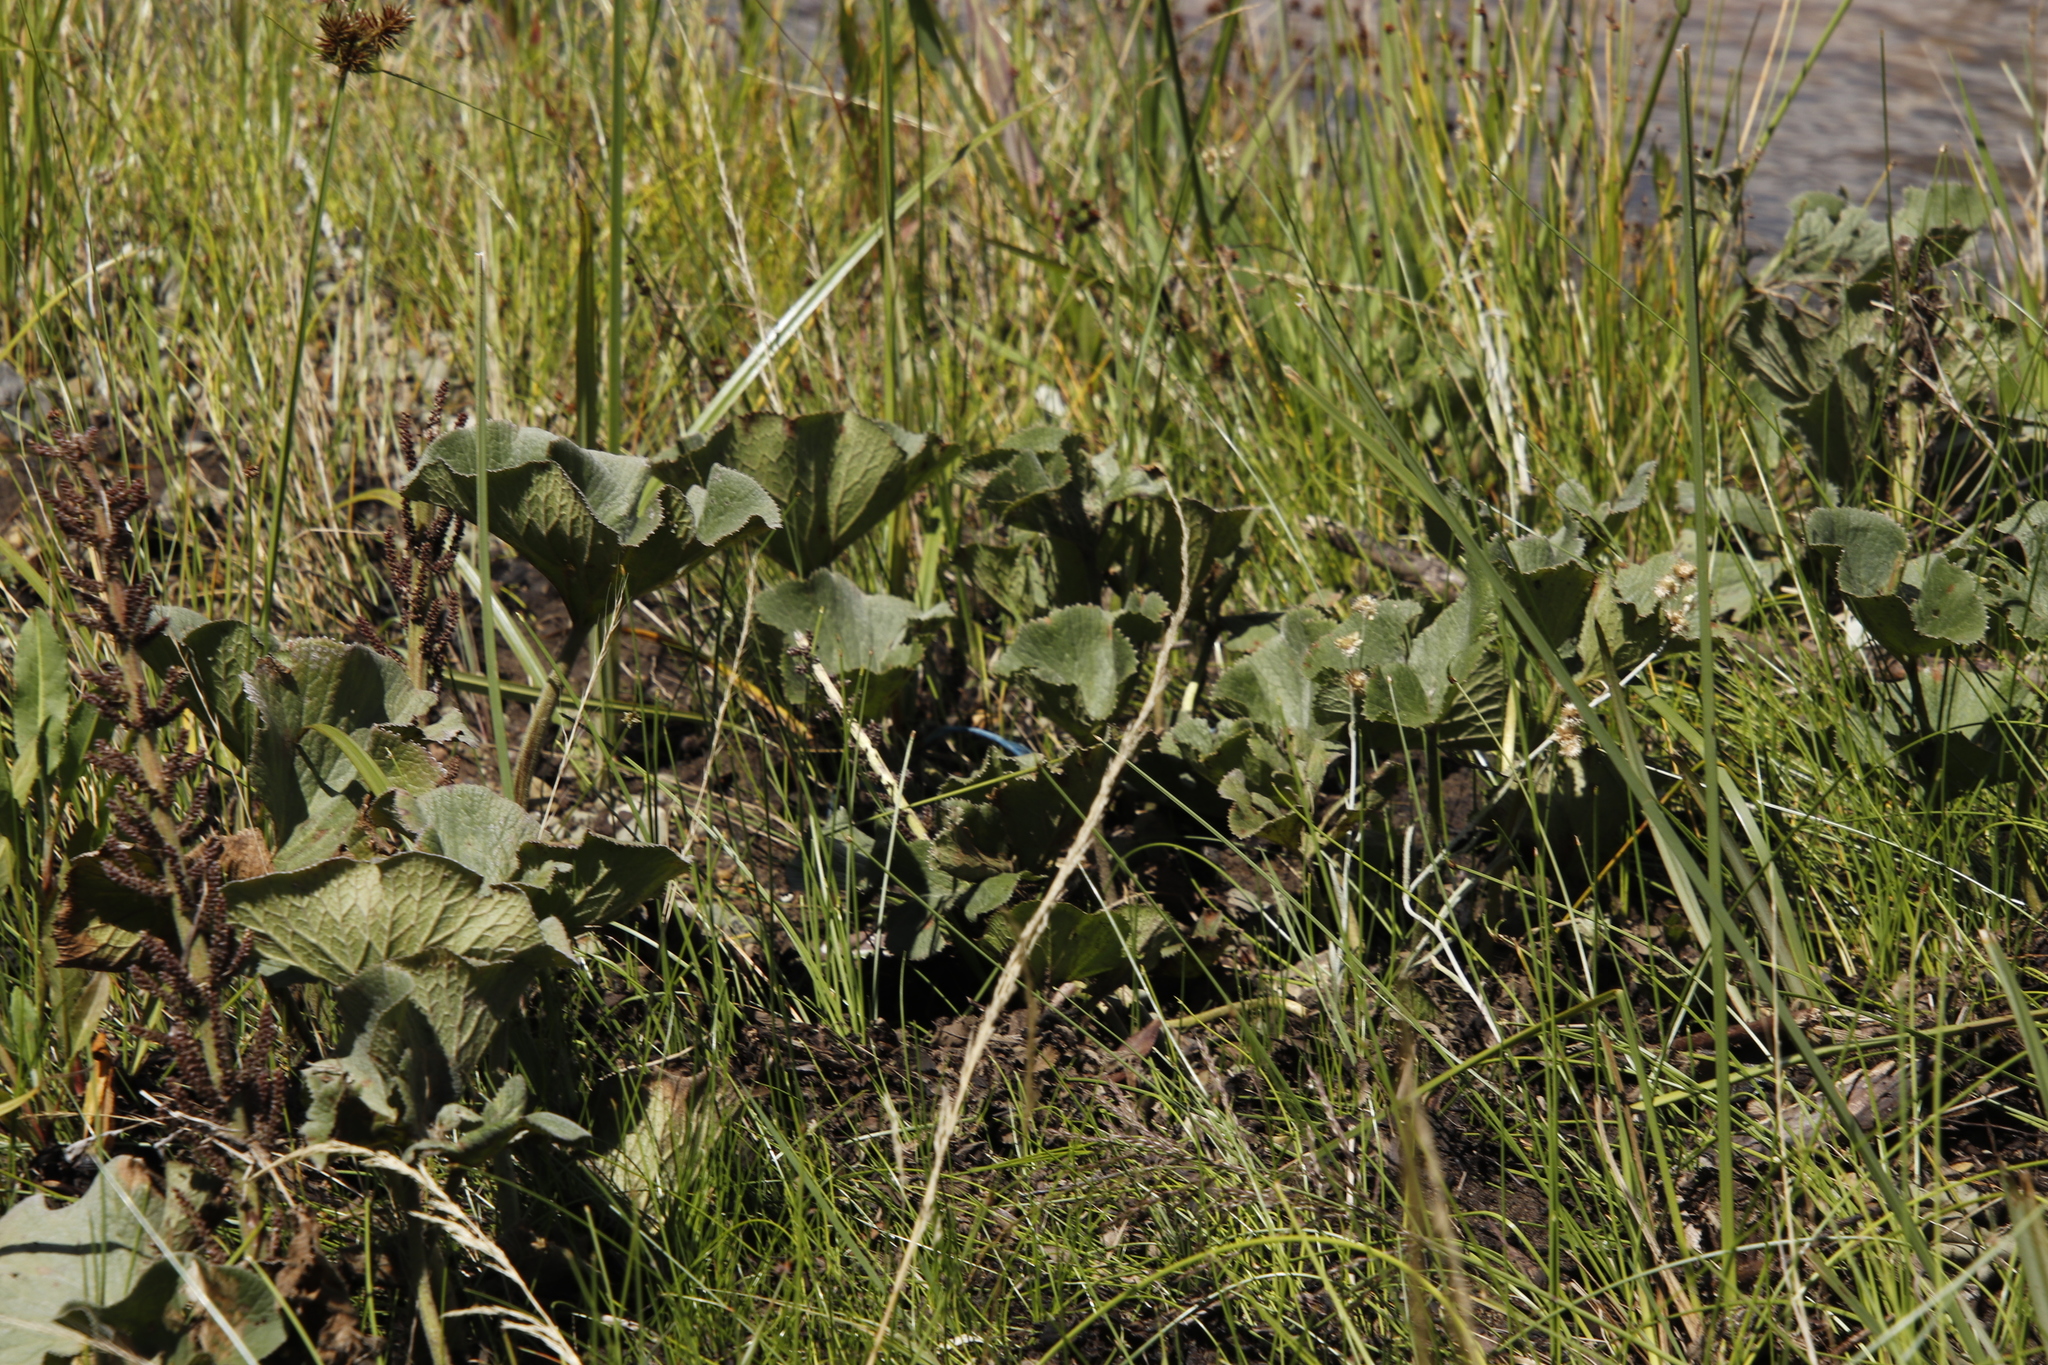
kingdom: Plantae
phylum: Tracheophyta
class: Magnoliopsida
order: Gunnerales
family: Gunneraceae
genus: Gunnera
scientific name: Gunnera perpensa
